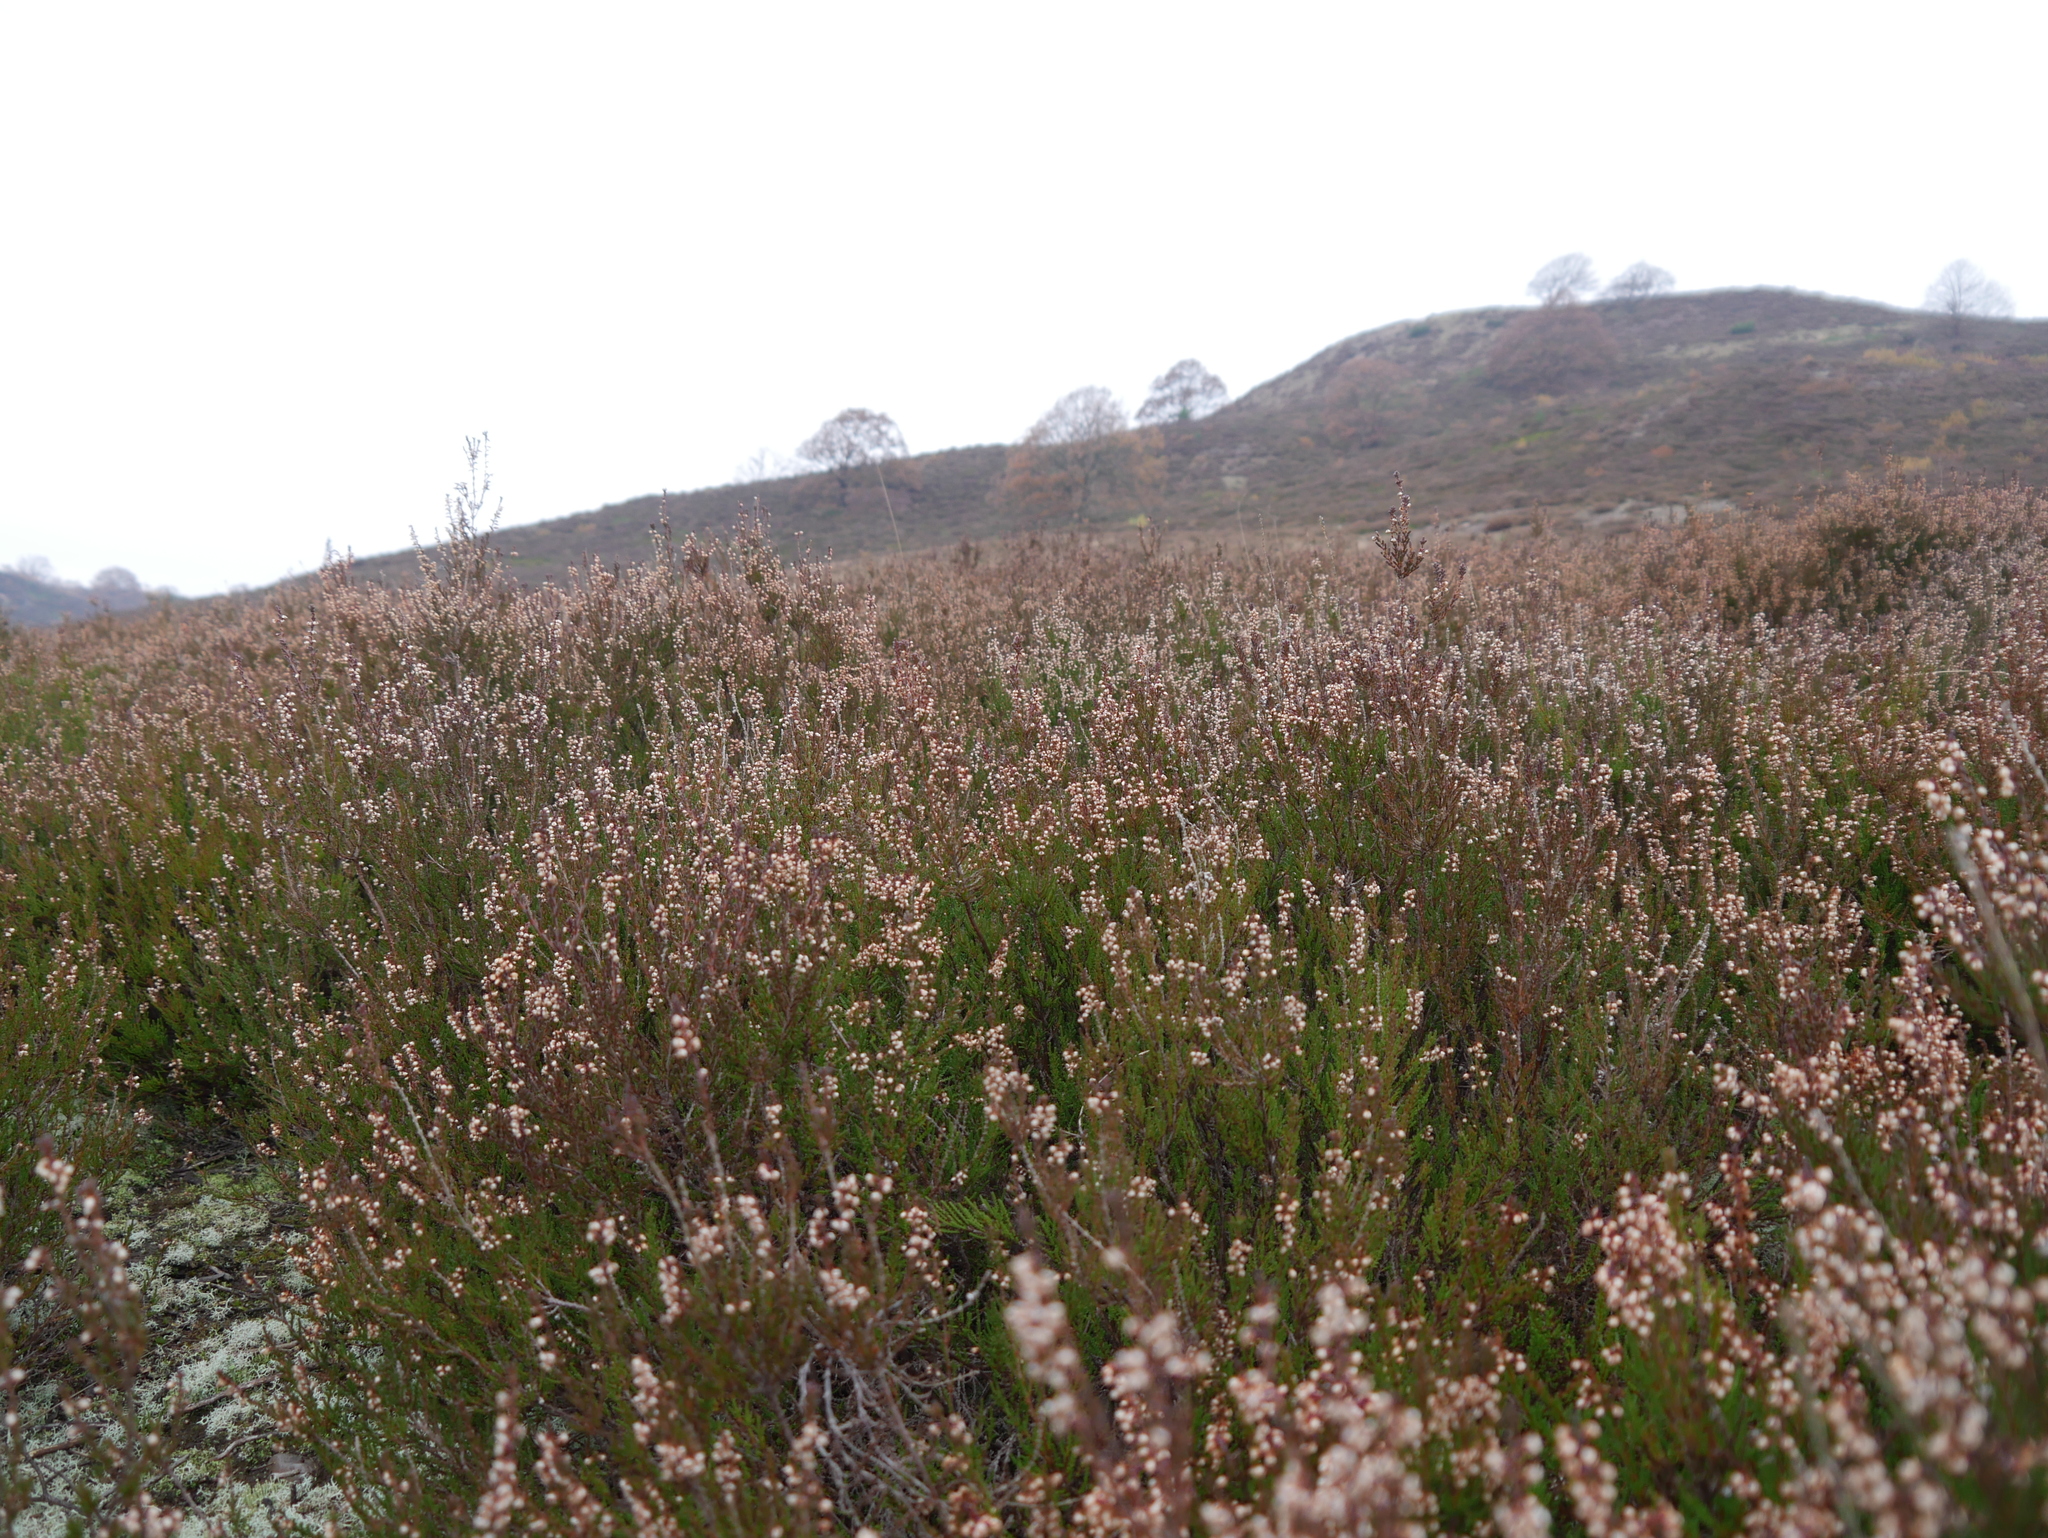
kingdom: Plantae
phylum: Tracheophyta
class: Magnoliopsida
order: Ericales
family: Ericaceae
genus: Calluna
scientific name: Calluna vulgaris
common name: Heather
